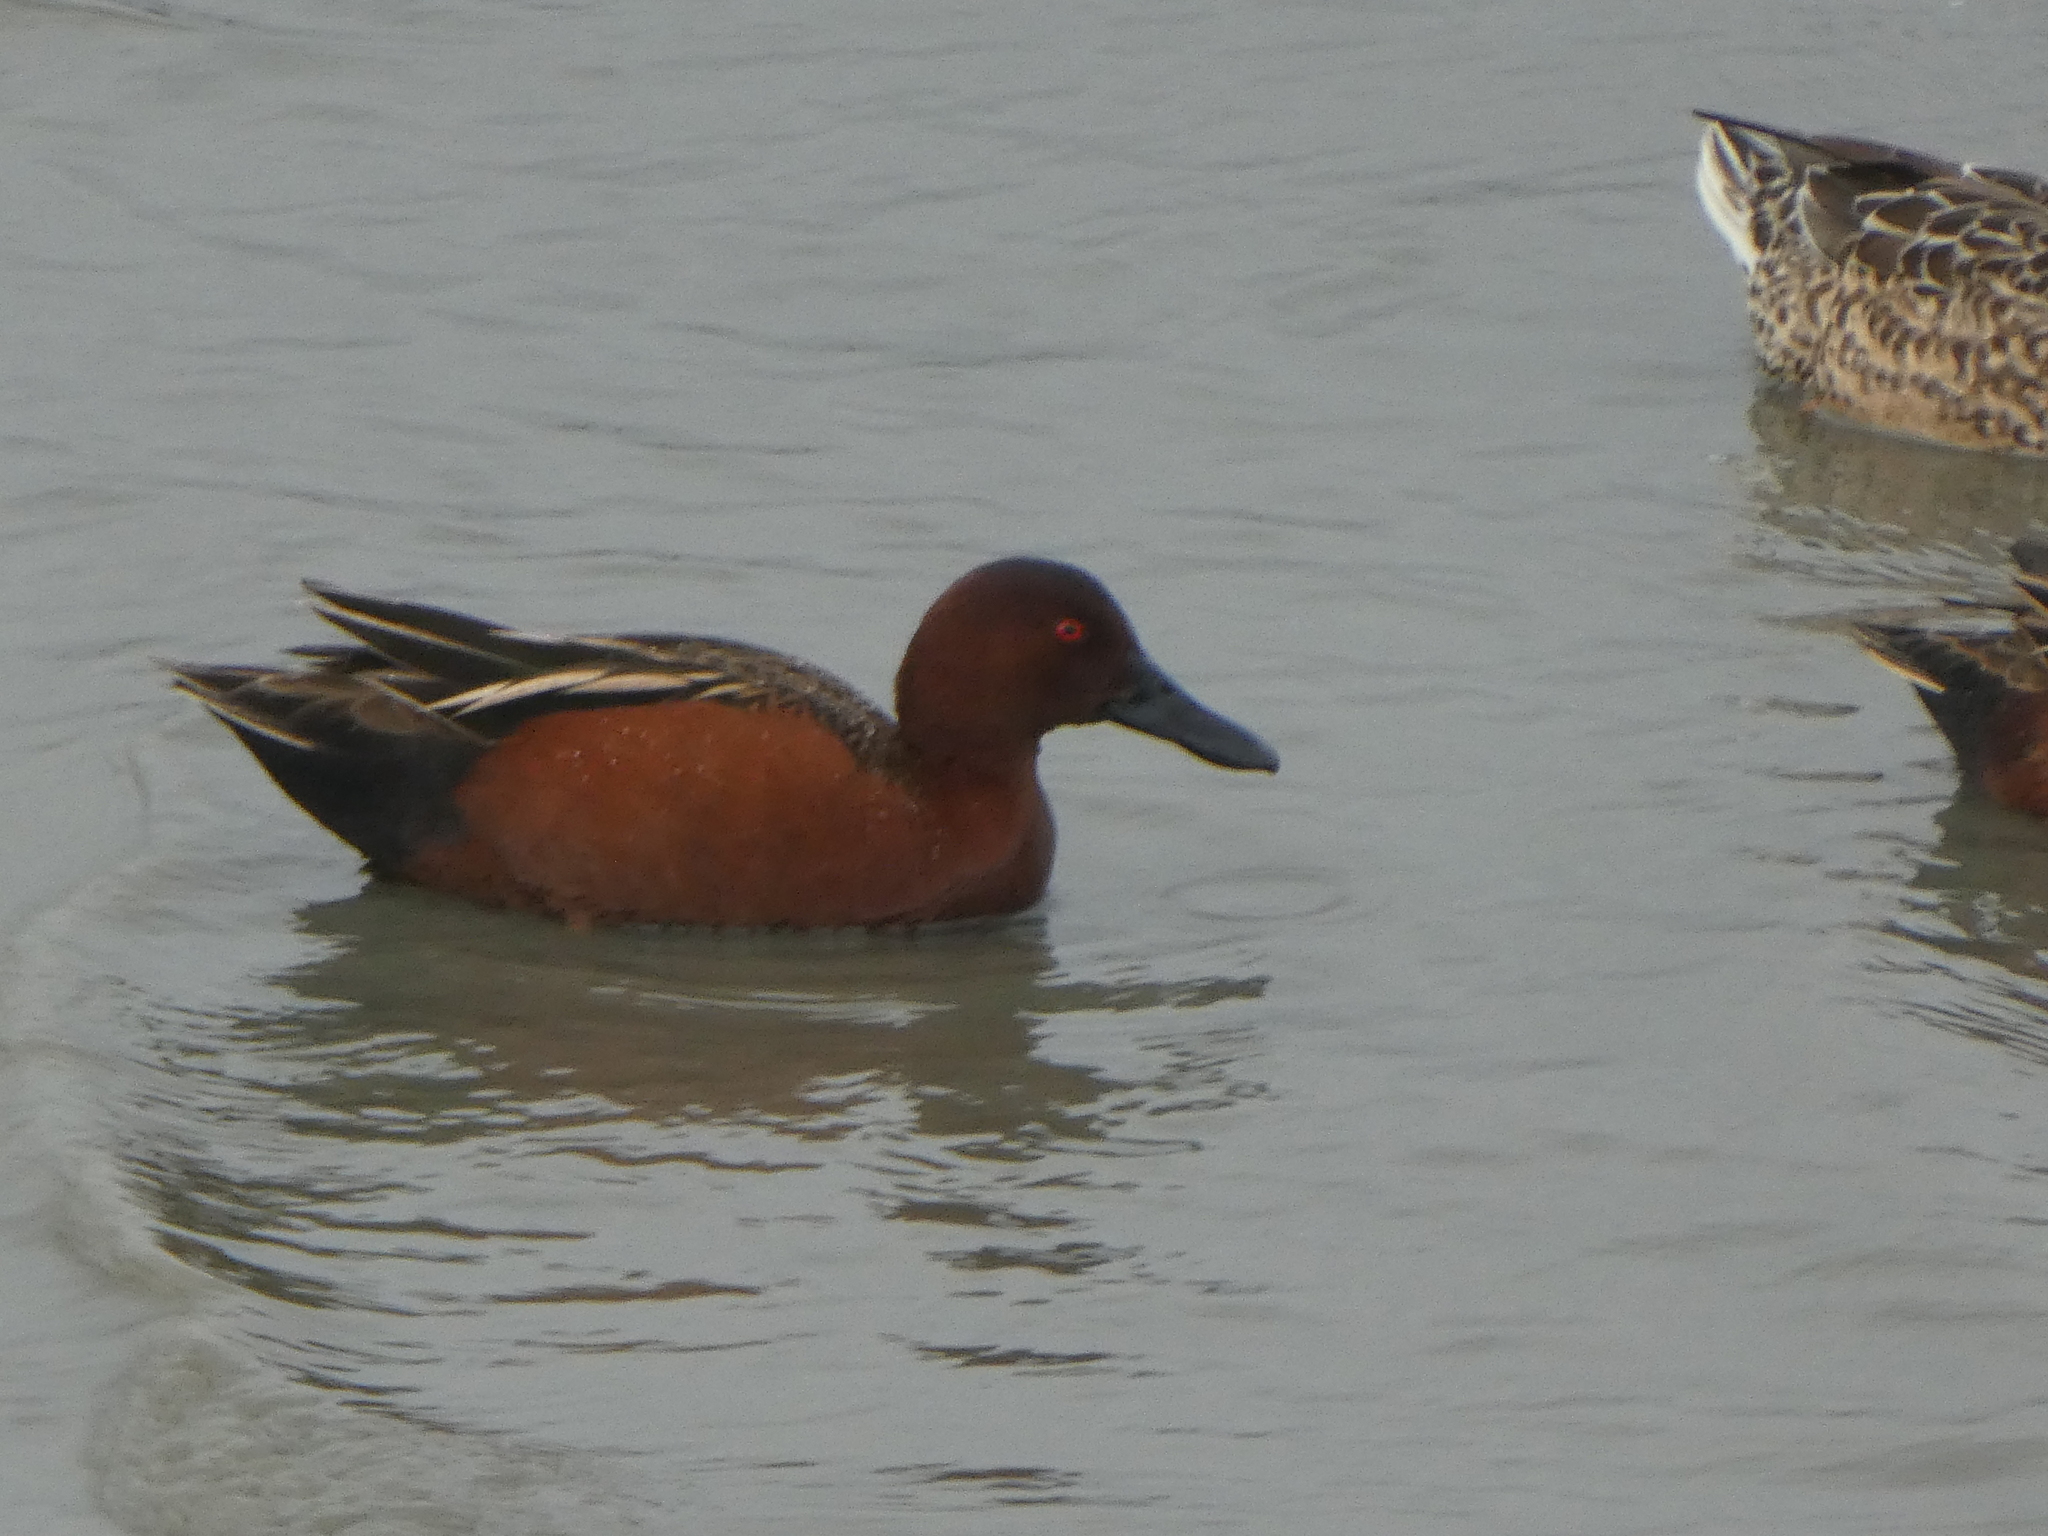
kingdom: Animalia
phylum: Chordata
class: Aves
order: Anseriformes
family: Anatidae
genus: Spatula
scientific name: Spatula cyanoptera
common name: Cinnamon teal
